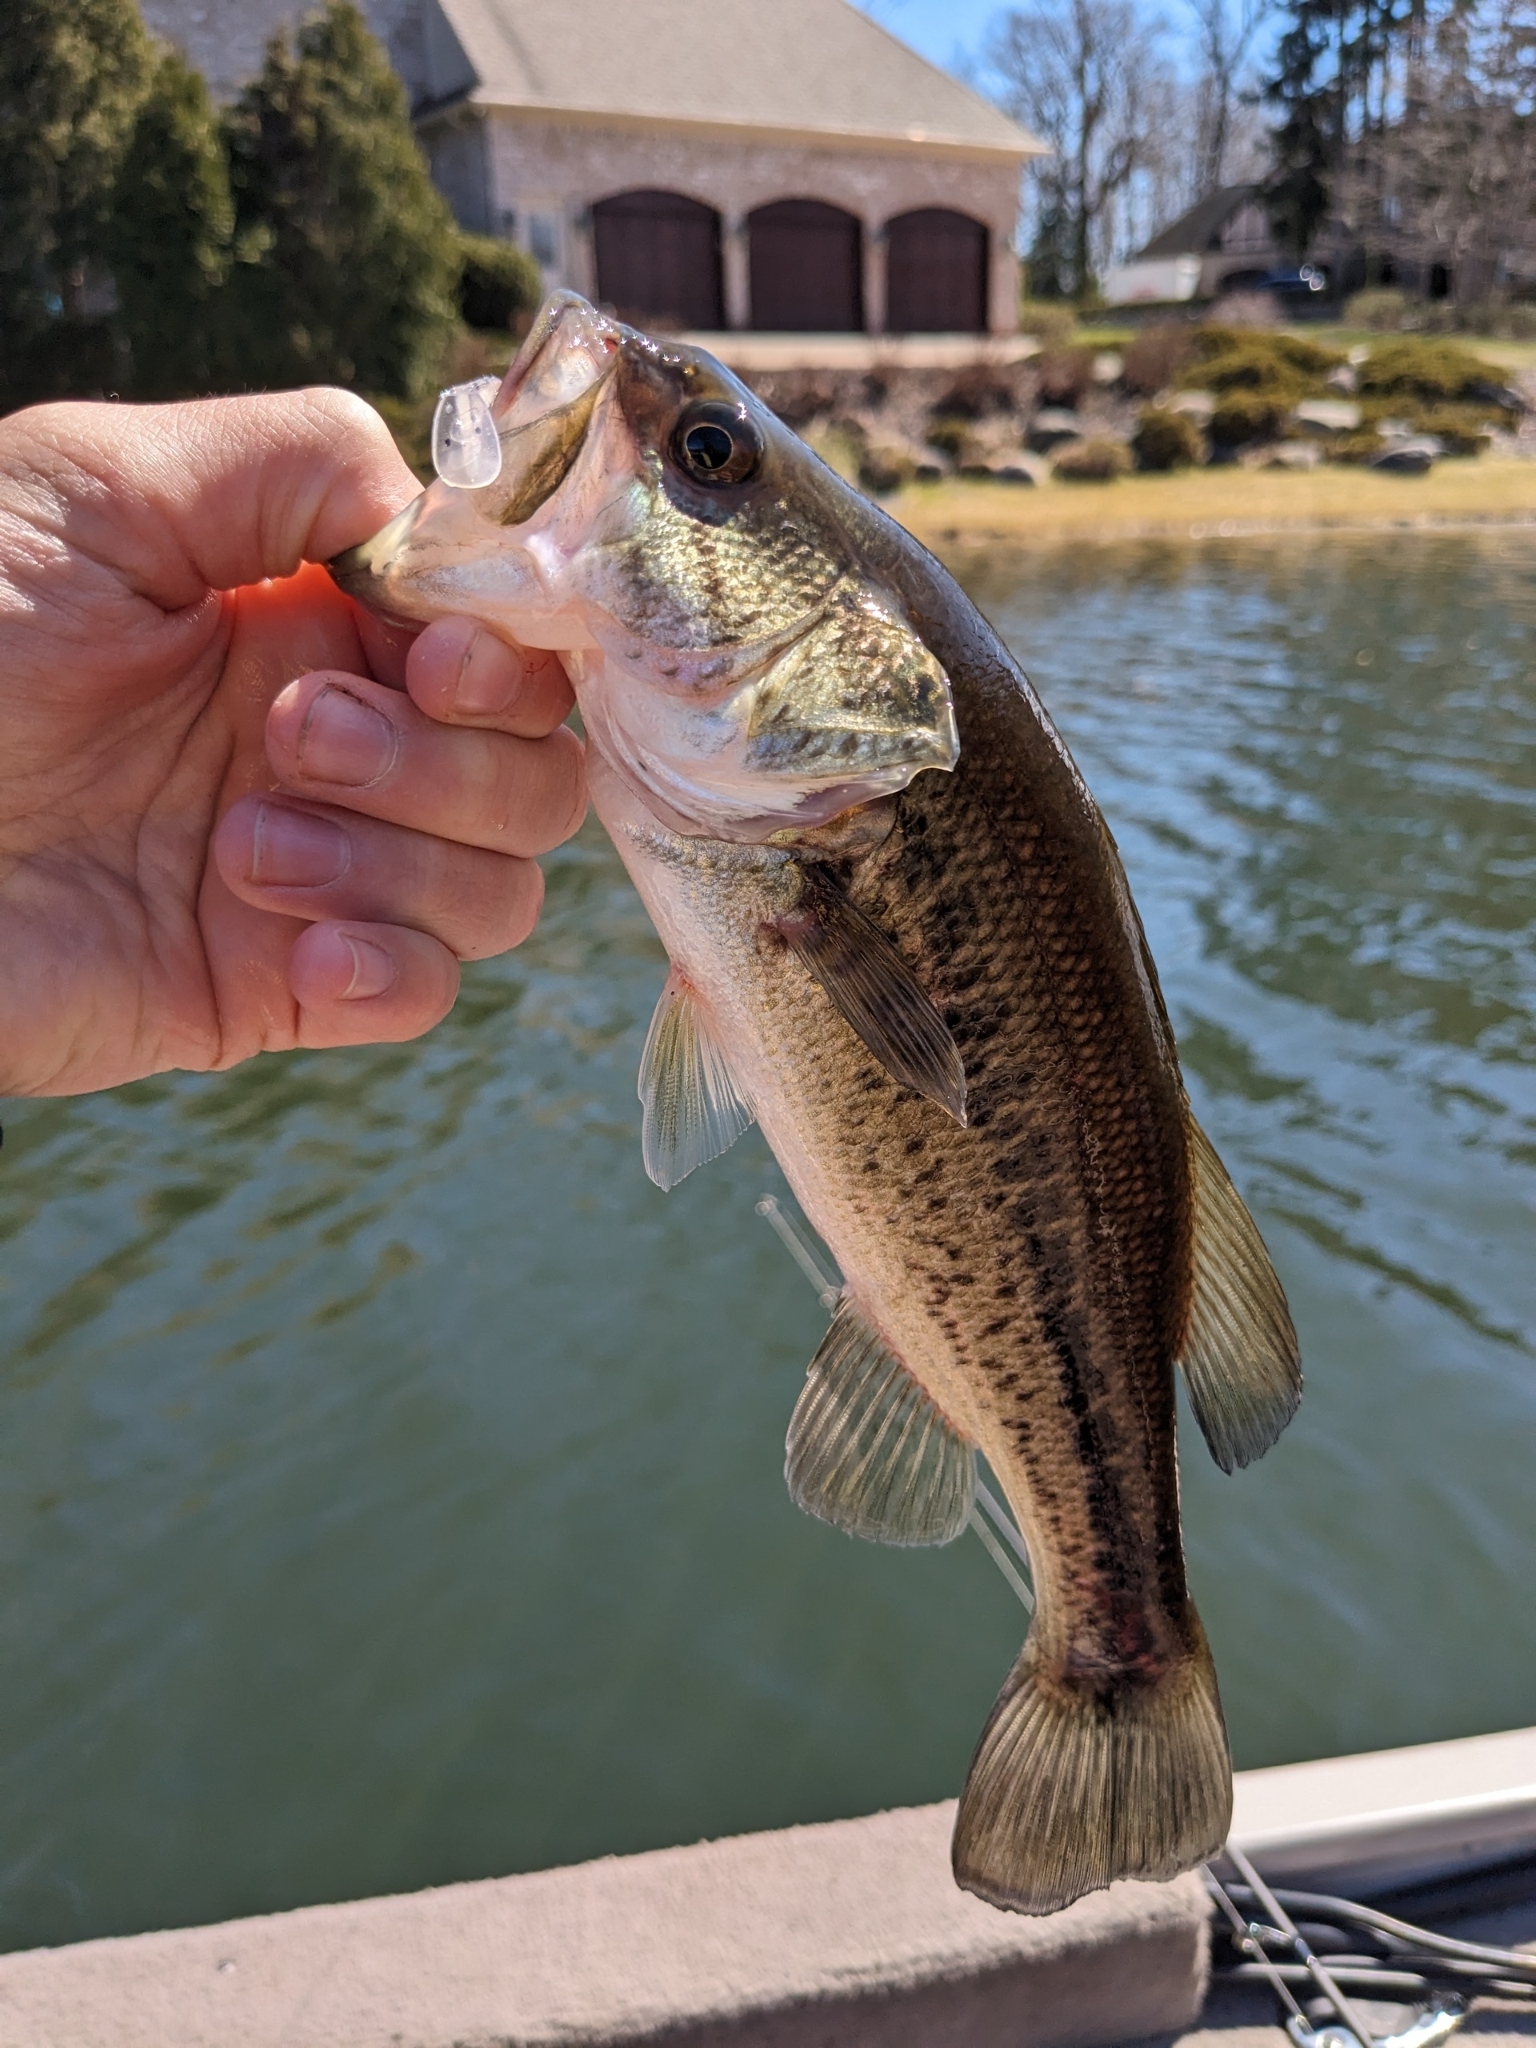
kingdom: Animalia
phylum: Chordata
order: Perciformes
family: Centrarchidae
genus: Micropterus
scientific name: Micropterus
